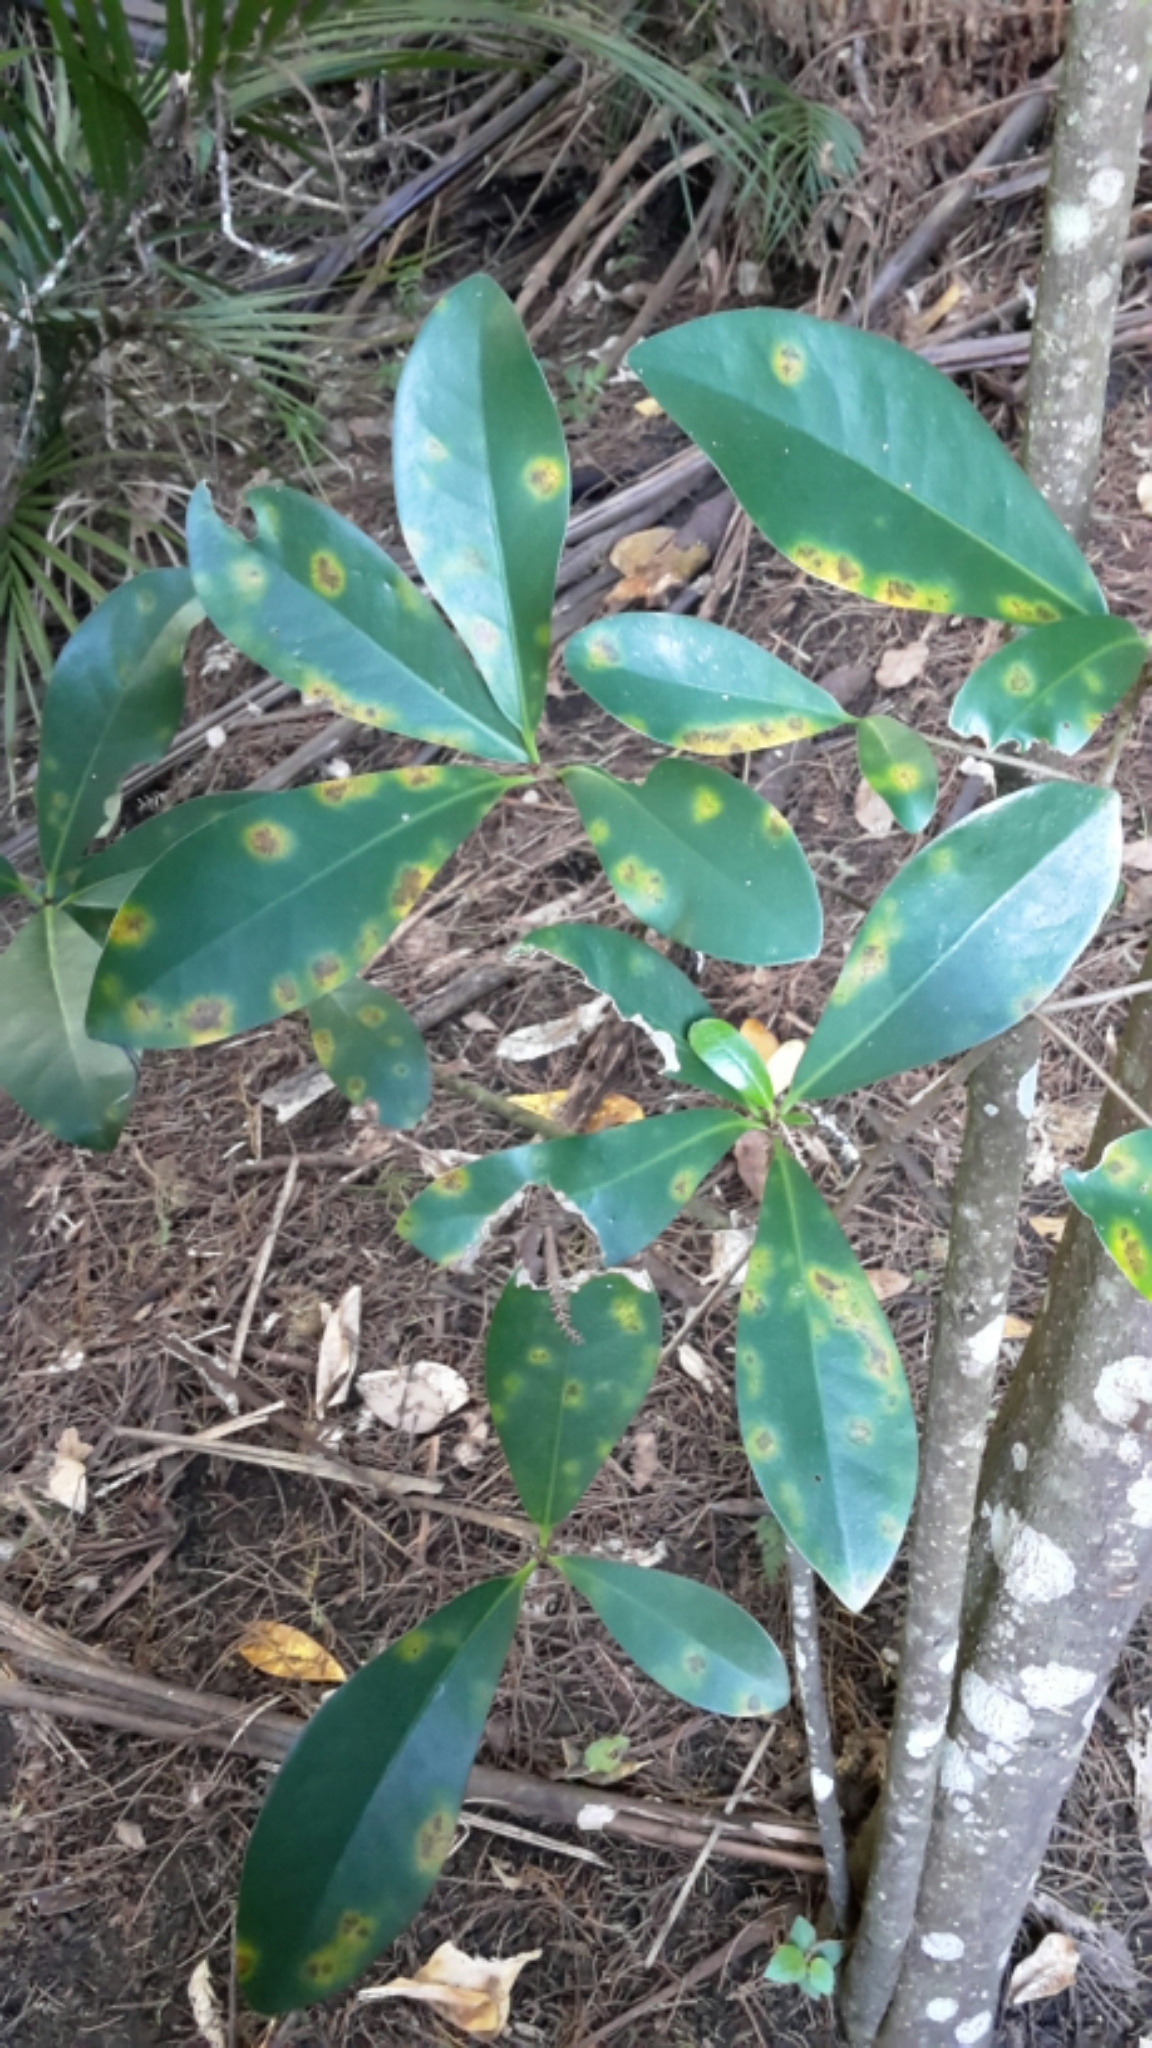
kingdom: Plantae
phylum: Tracheophyta
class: Magnoliopsida
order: Cucurbitales
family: Corynocarpaceae
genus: Corynocarpus
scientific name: Corynocarpus laevigatus
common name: New zealand laurel
